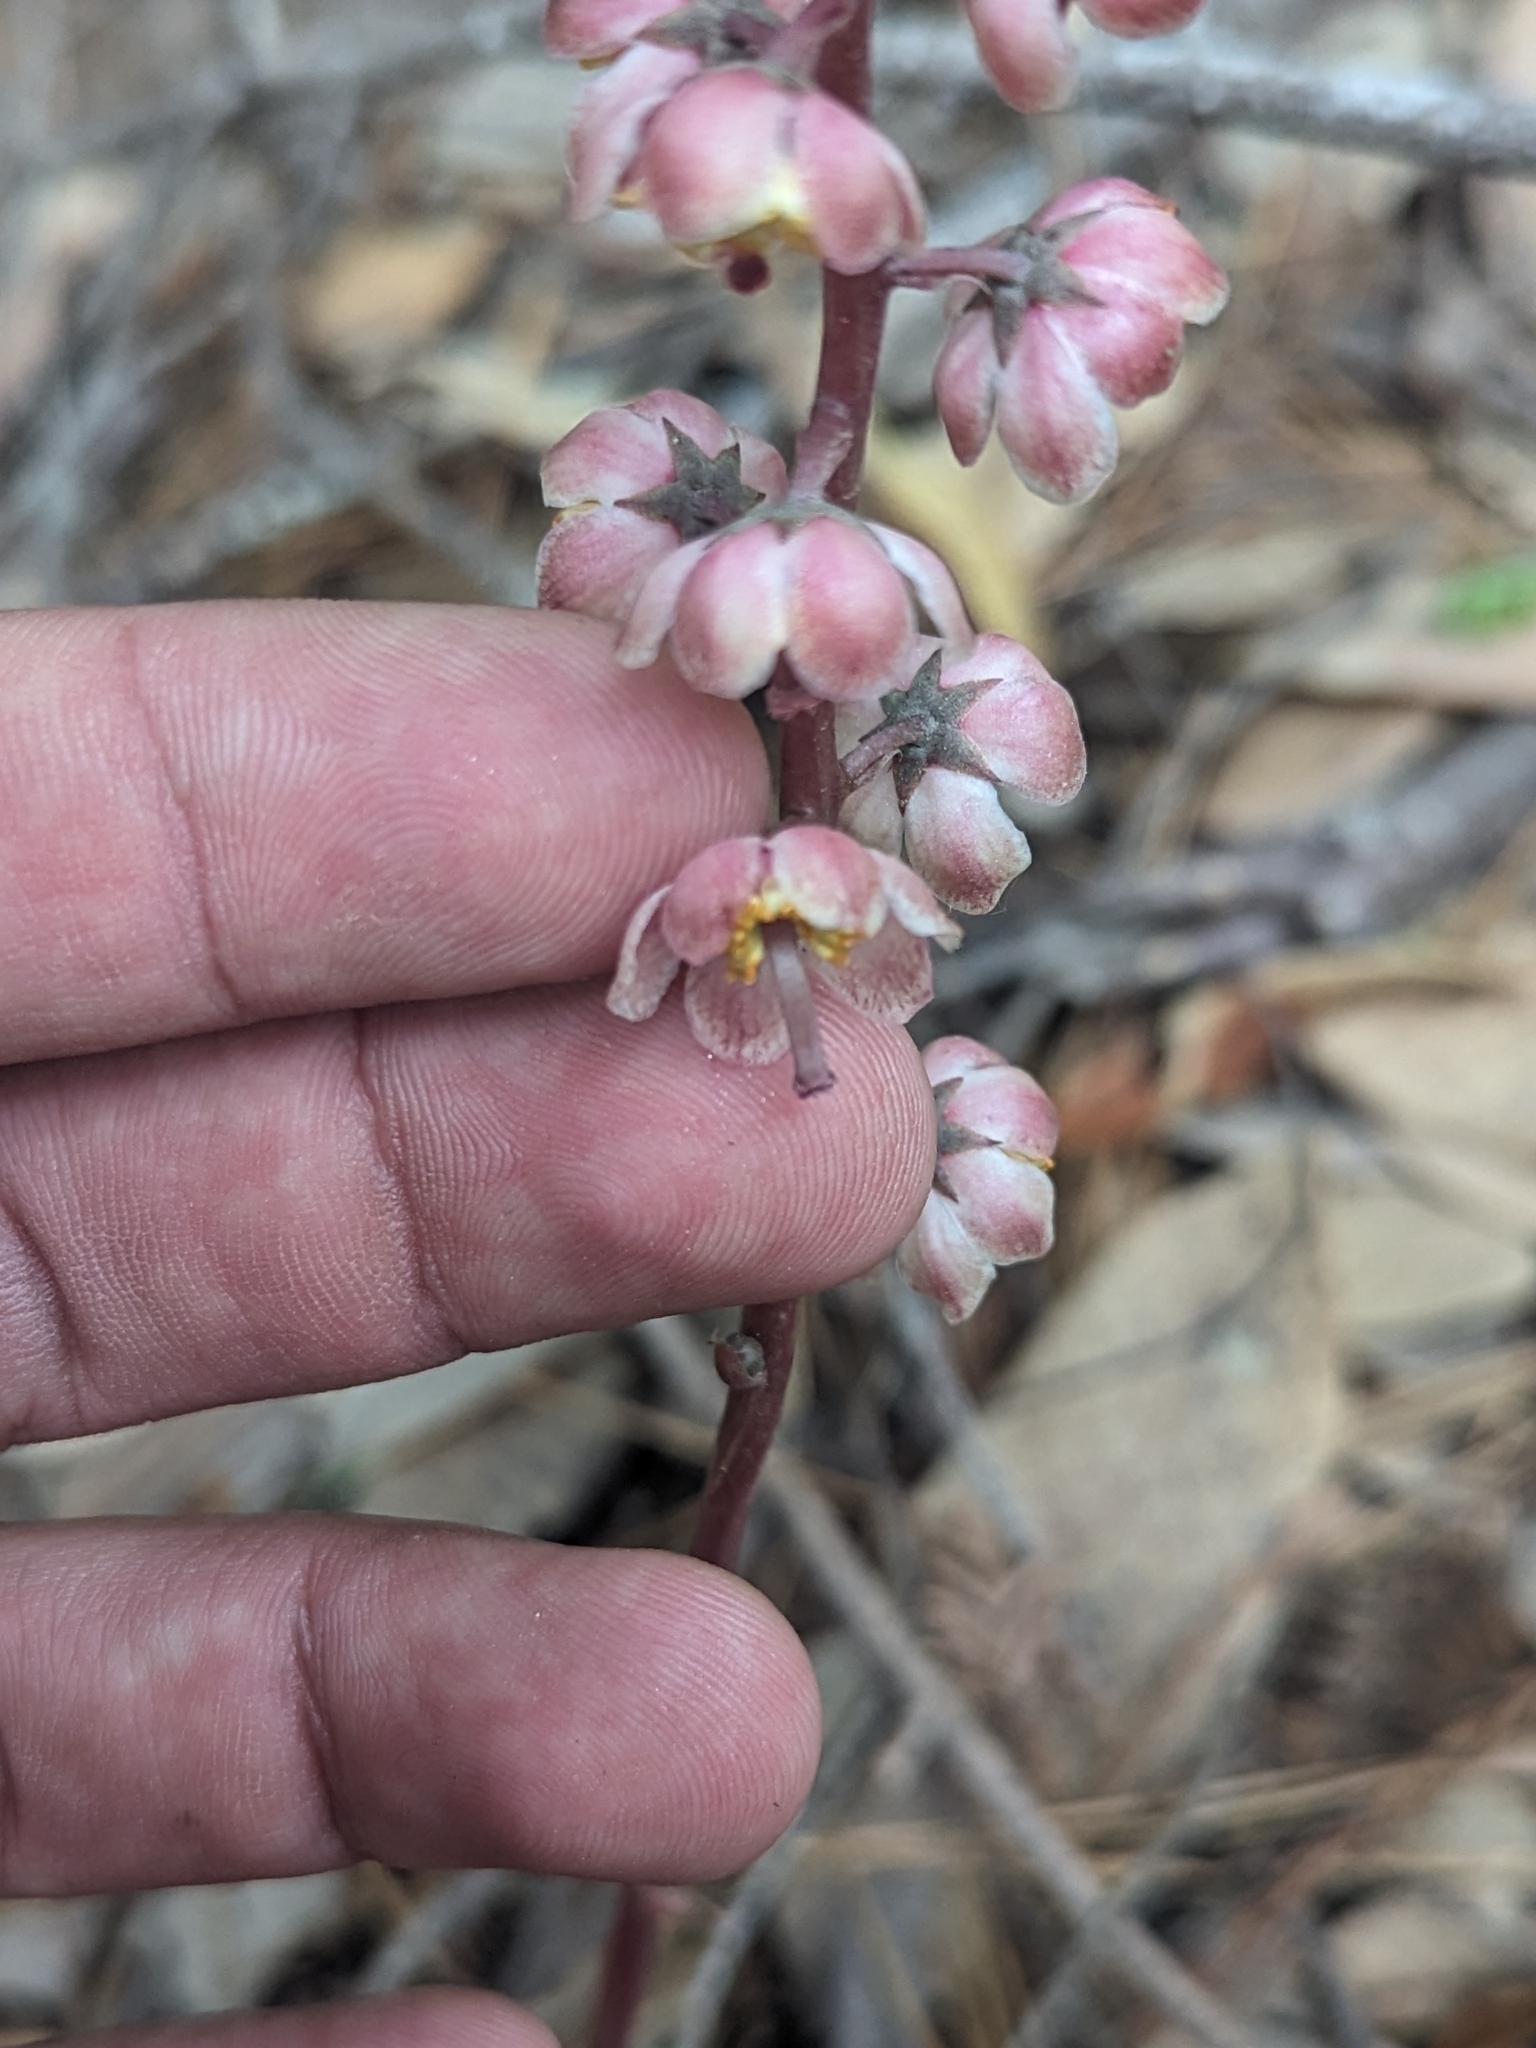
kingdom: Plantae
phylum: Tracheophyta
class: Magnoliopsida
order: Ericales
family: Ericaceae
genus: Pyrola
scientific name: Pyrola aphylla
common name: Leafless wintergreen
